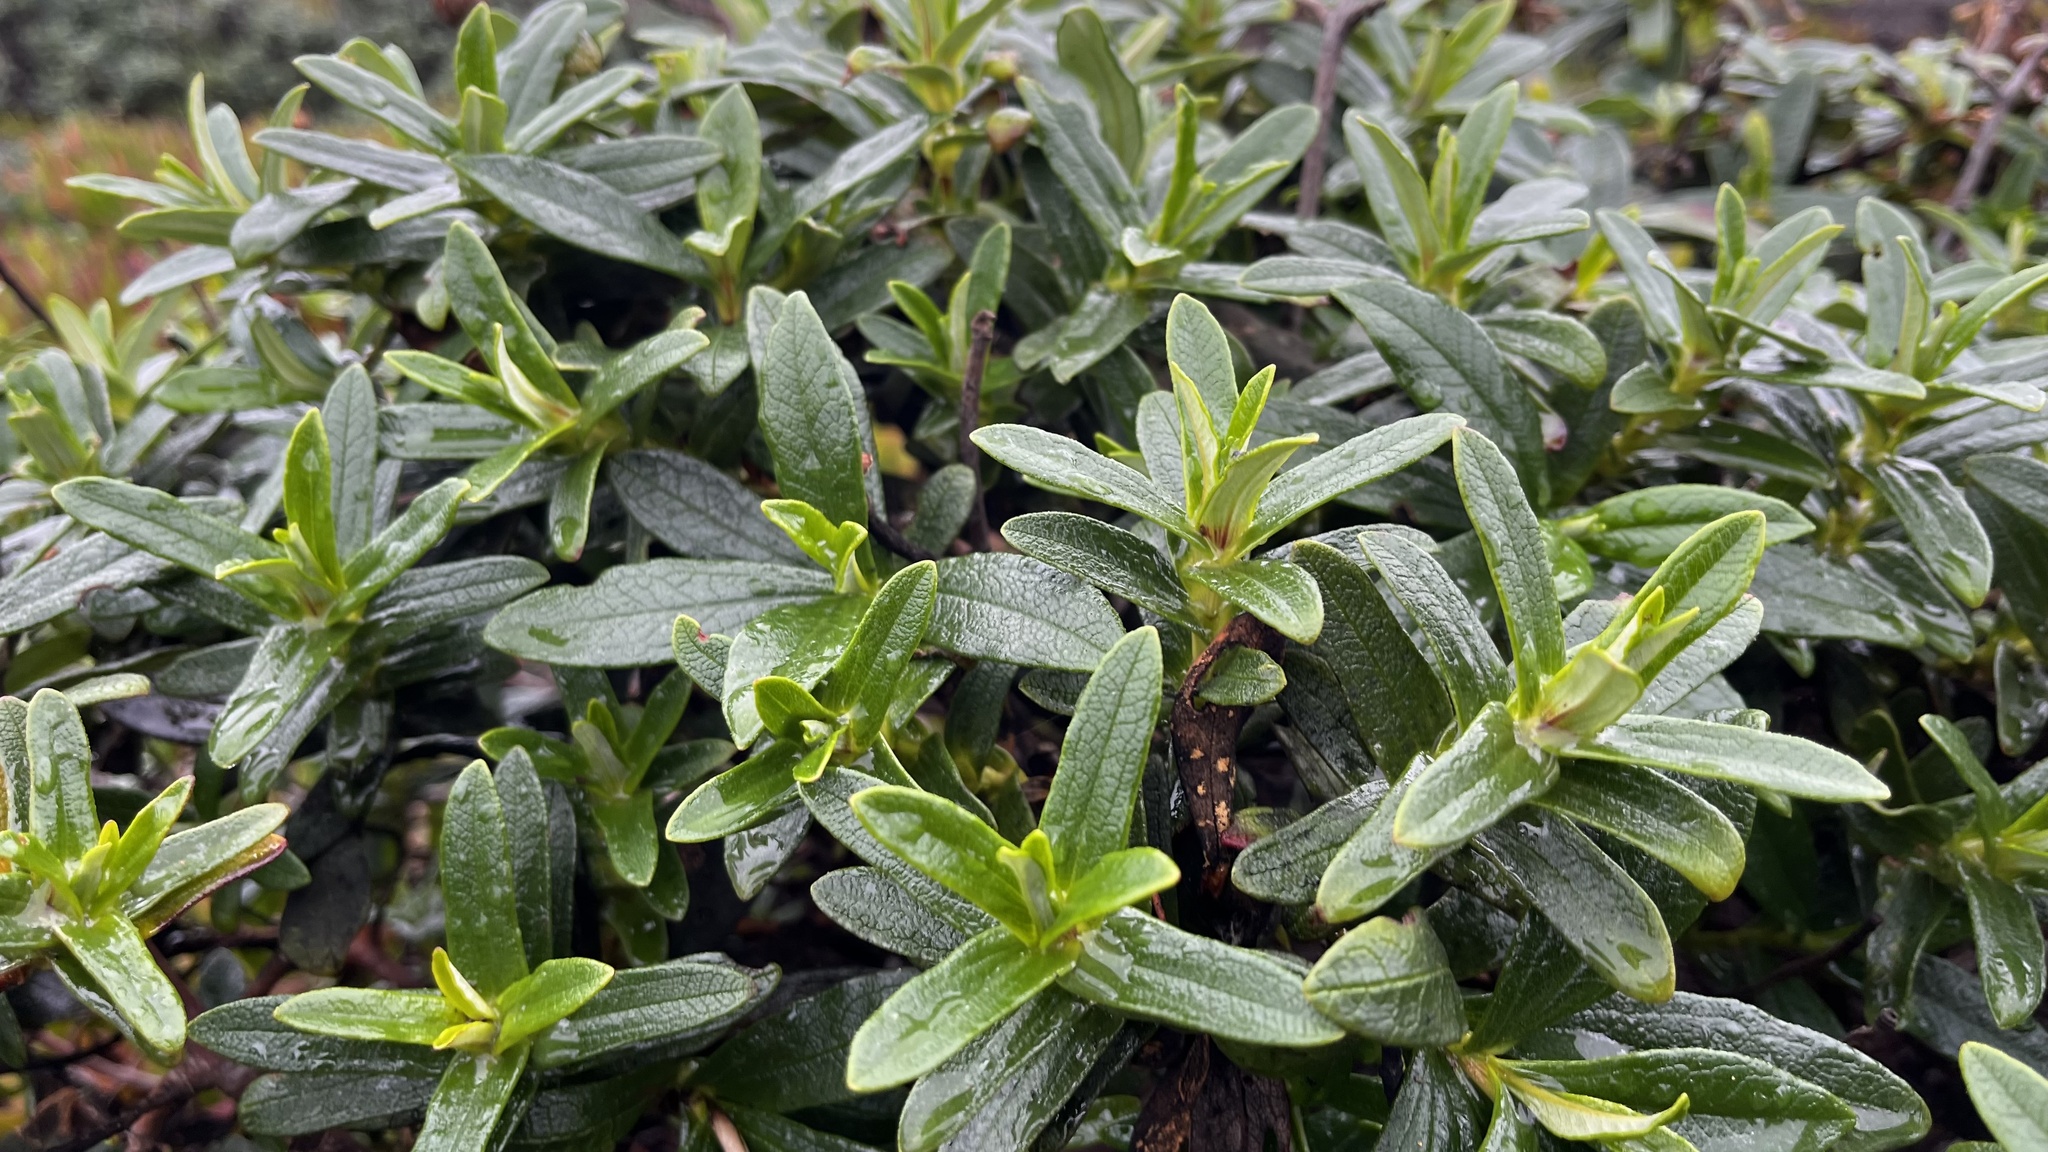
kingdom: Plantae
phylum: Tracheophyta
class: Magnoliopsida
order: Malvales
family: Cistaceae
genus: Cistus
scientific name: Cistus ladanifer
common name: Common gum cistus
